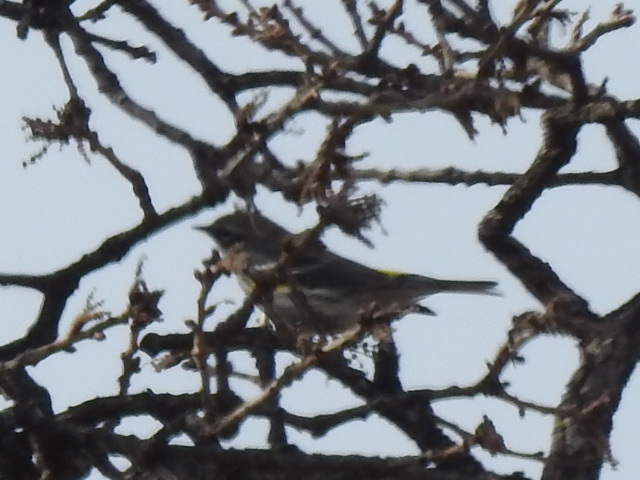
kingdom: Animalia
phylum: Chordata
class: Aves
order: Passeriformes
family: Parulidae
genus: Setophaga
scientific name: Setophaga coronata
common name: Myrtle warbler
